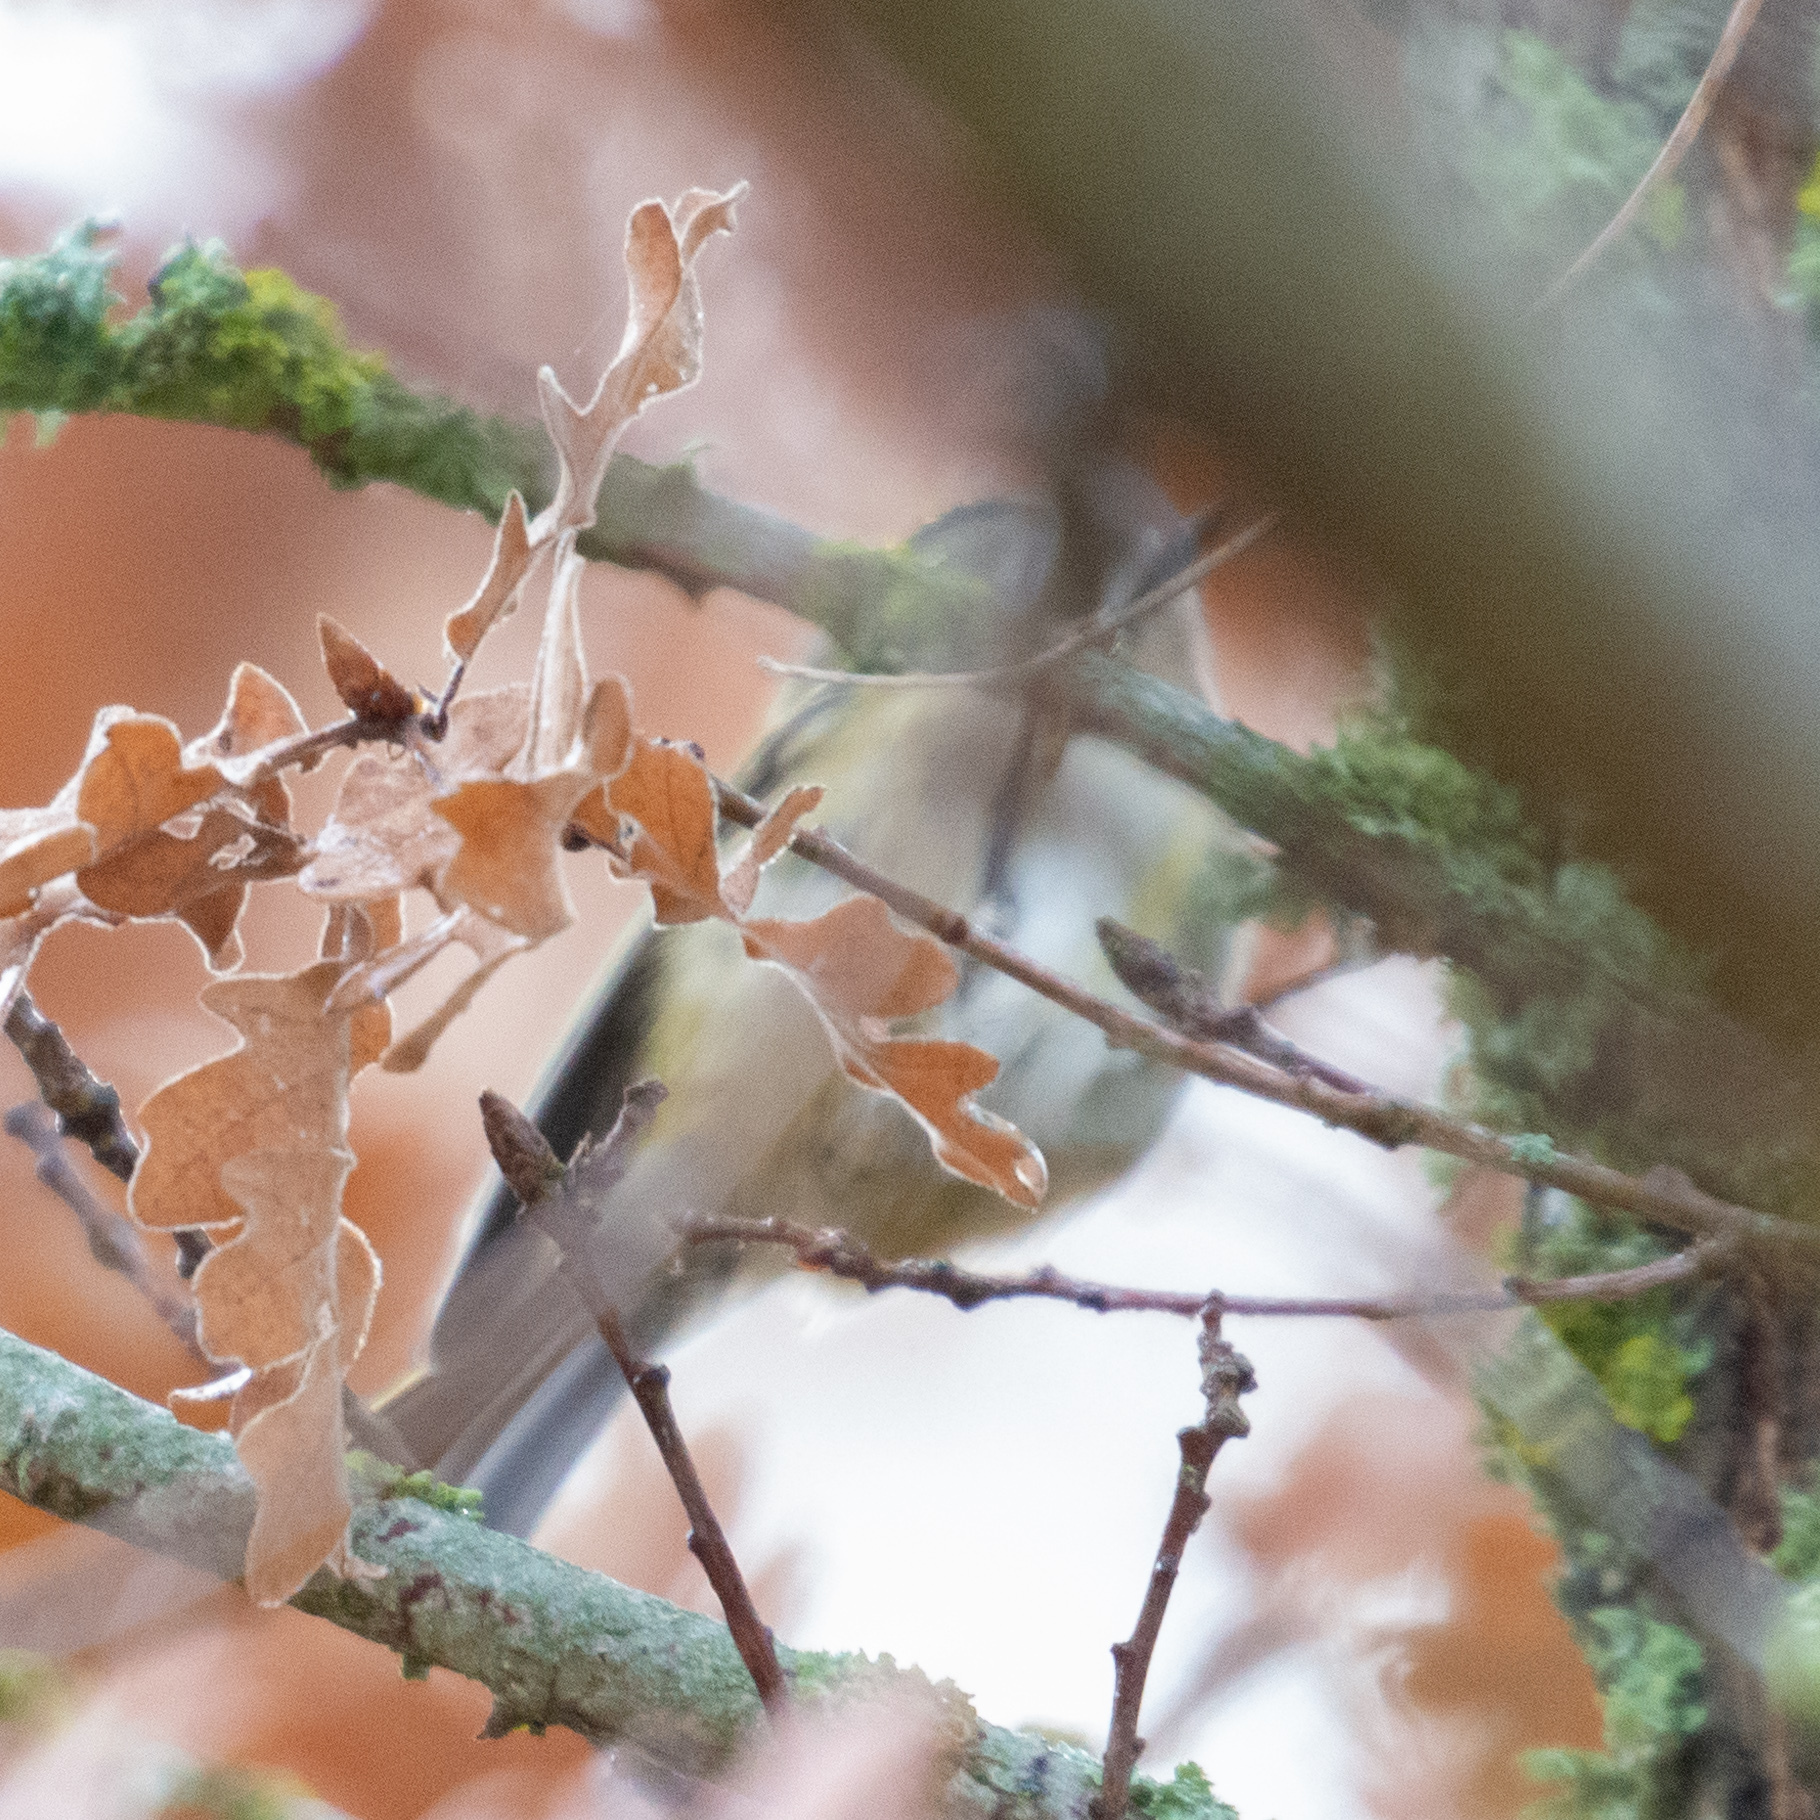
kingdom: Animalia
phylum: Chordata
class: Aves
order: Passeriformes
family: Regulidae
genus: Regulus
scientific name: Regulus regulus
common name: Goldcrest
